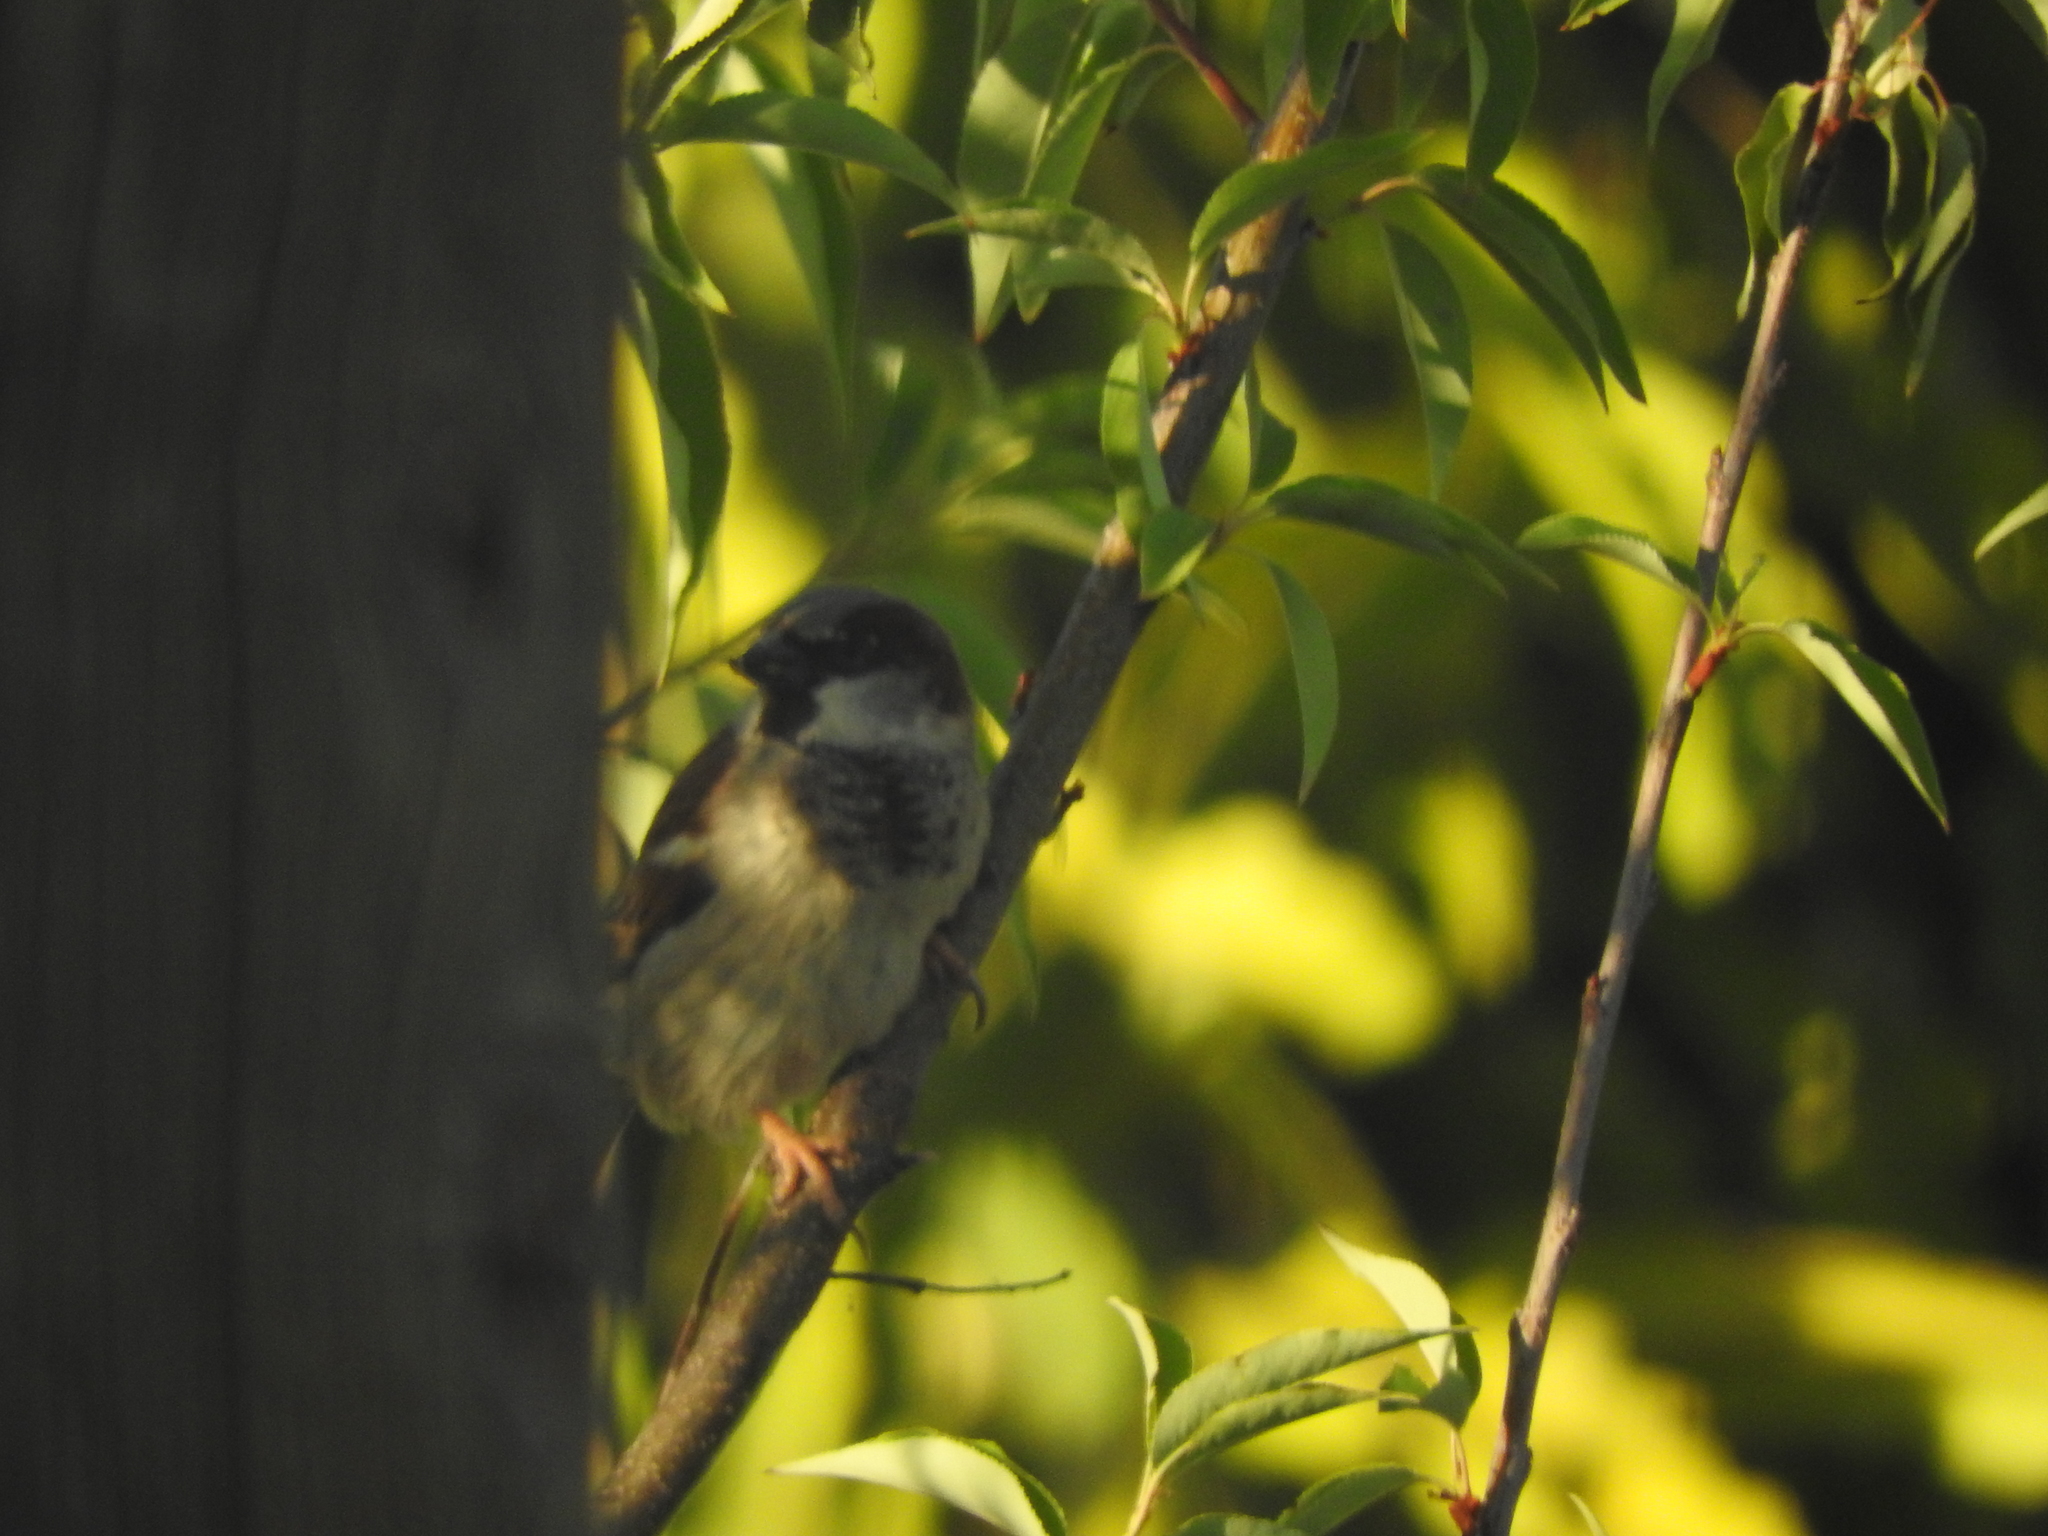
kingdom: Animalia
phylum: Chordata
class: Aves
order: Passeriformes
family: Passeridae
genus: Passer
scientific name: Passer domesticus
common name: House sparrow
